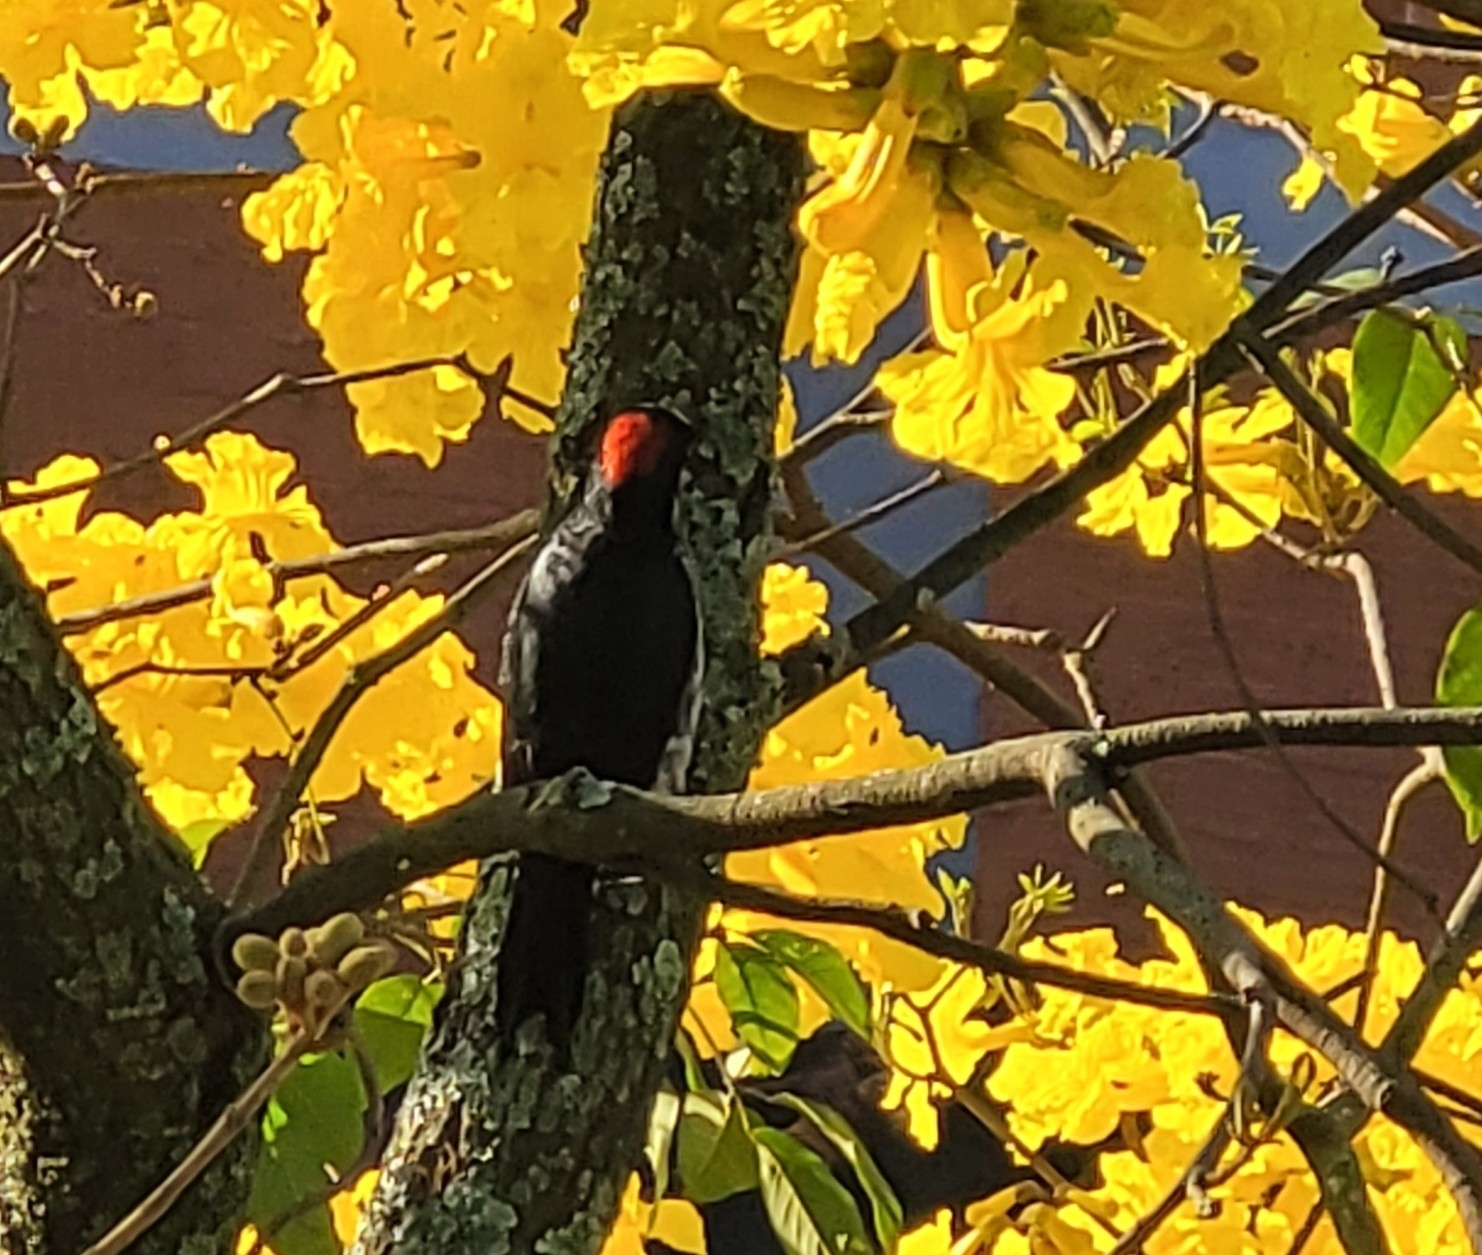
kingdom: Animalia
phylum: Chordata
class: Aves
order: Piciformes
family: Picidae
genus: Melanerpes
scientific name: Melanerpes formicivorus
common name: Acorn woodpecker
